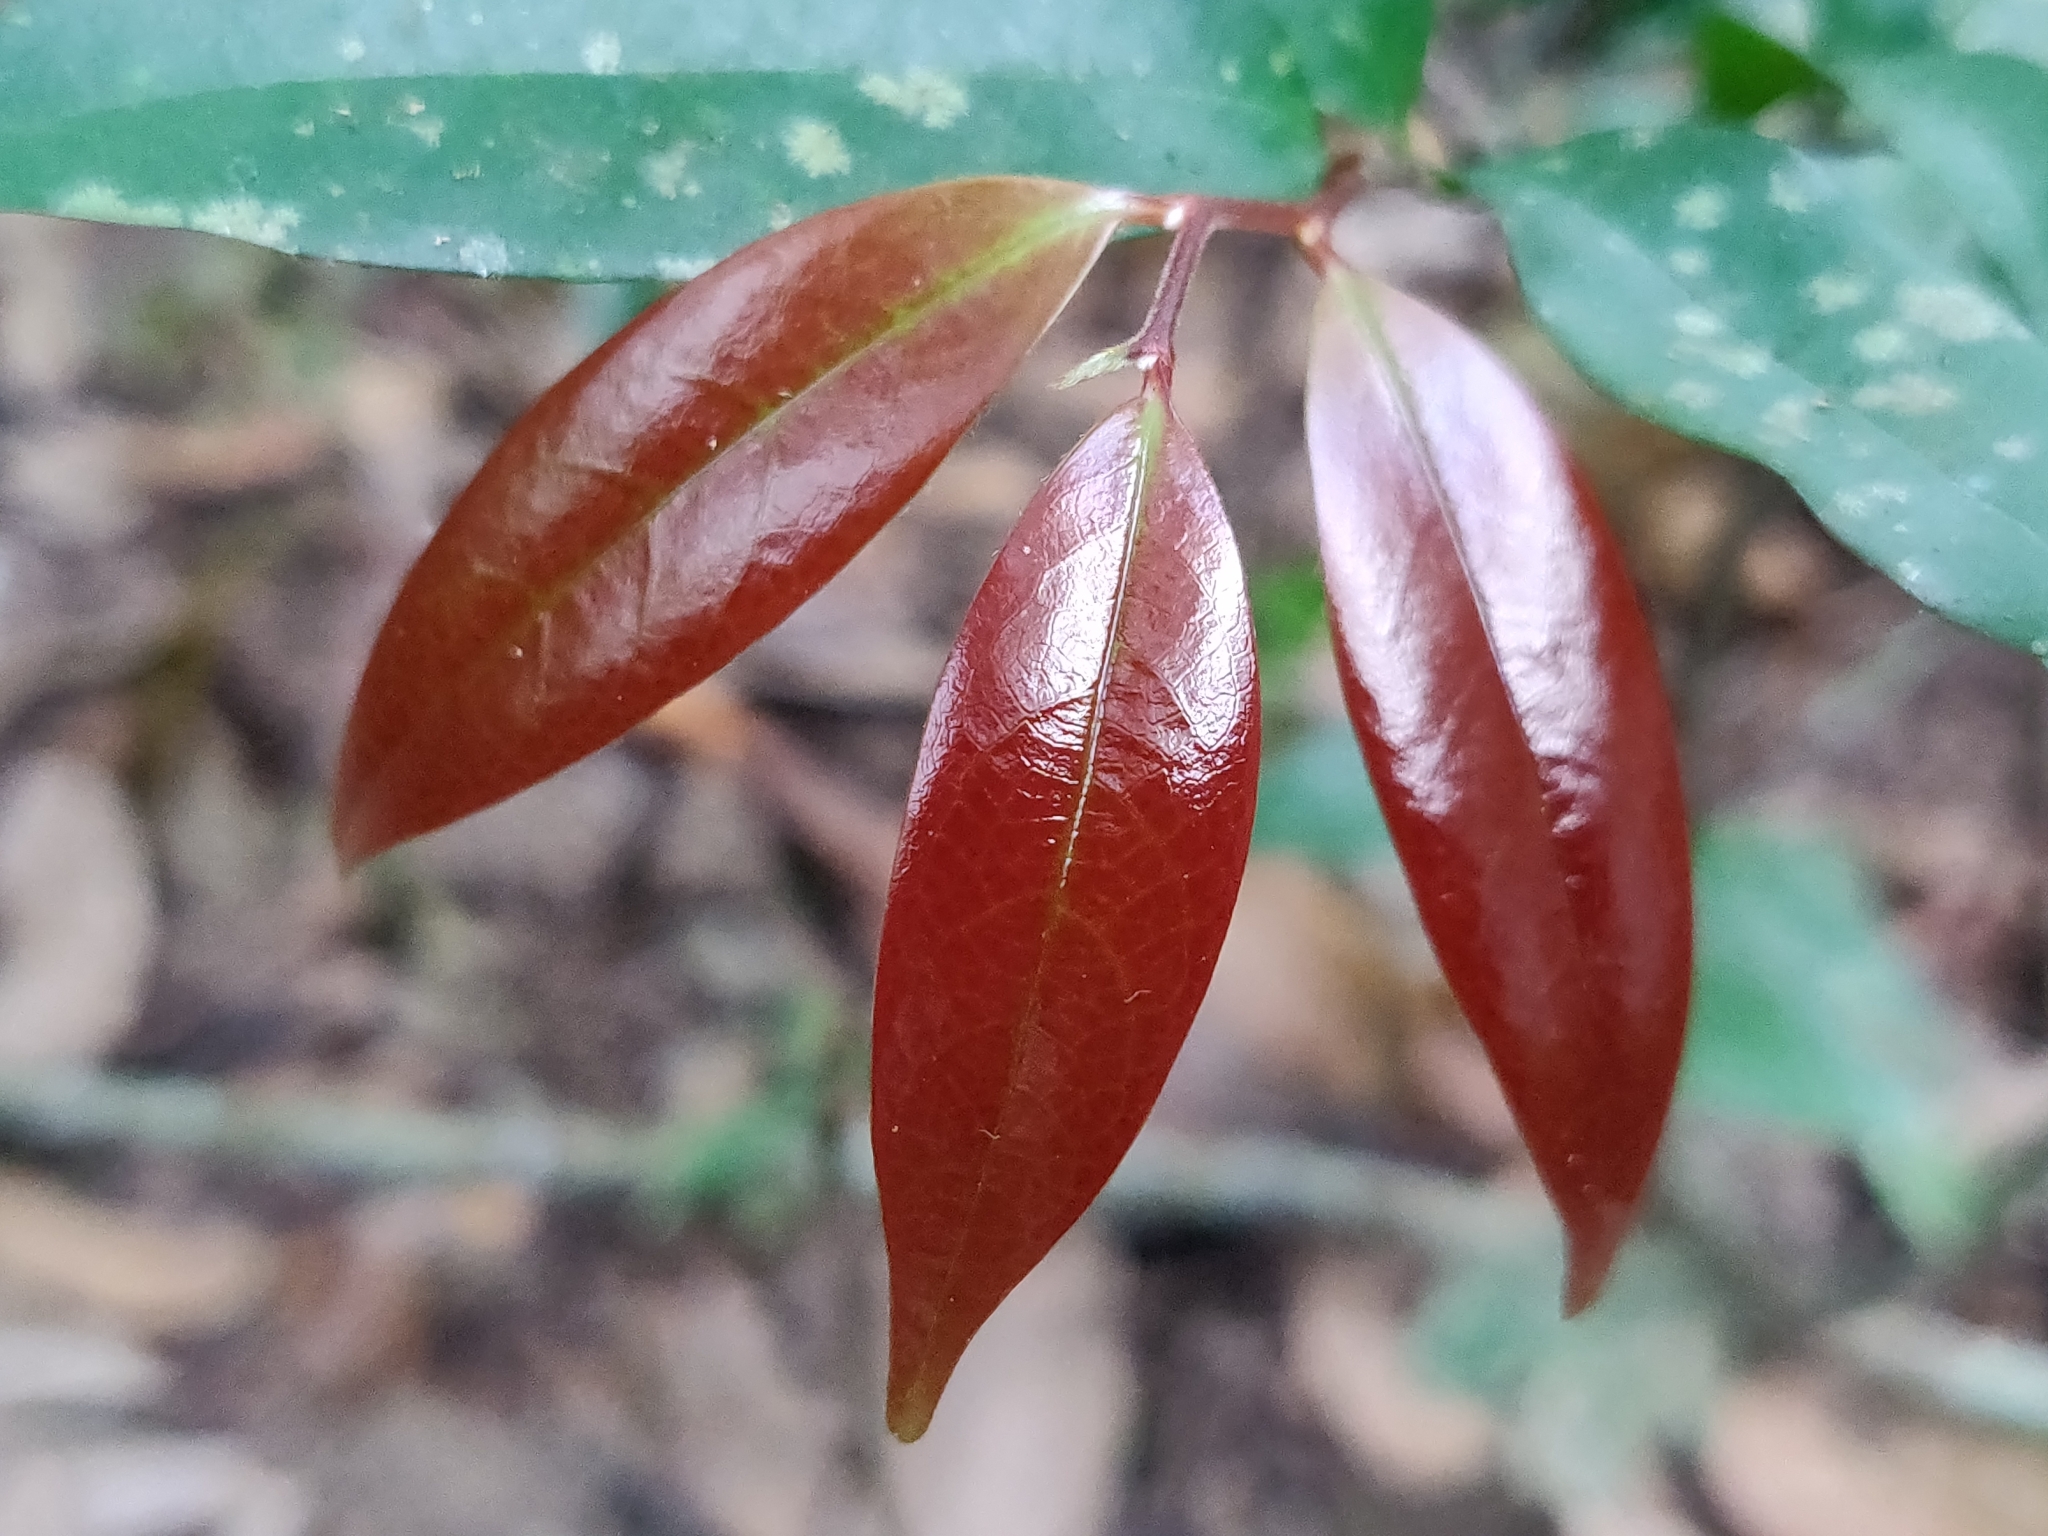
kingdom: Plantae
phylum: Tracheophyta
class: Magnoliopsida
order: Magnoliales
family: Annonaceae
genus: Orophea
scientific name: Orophea thomsonii
